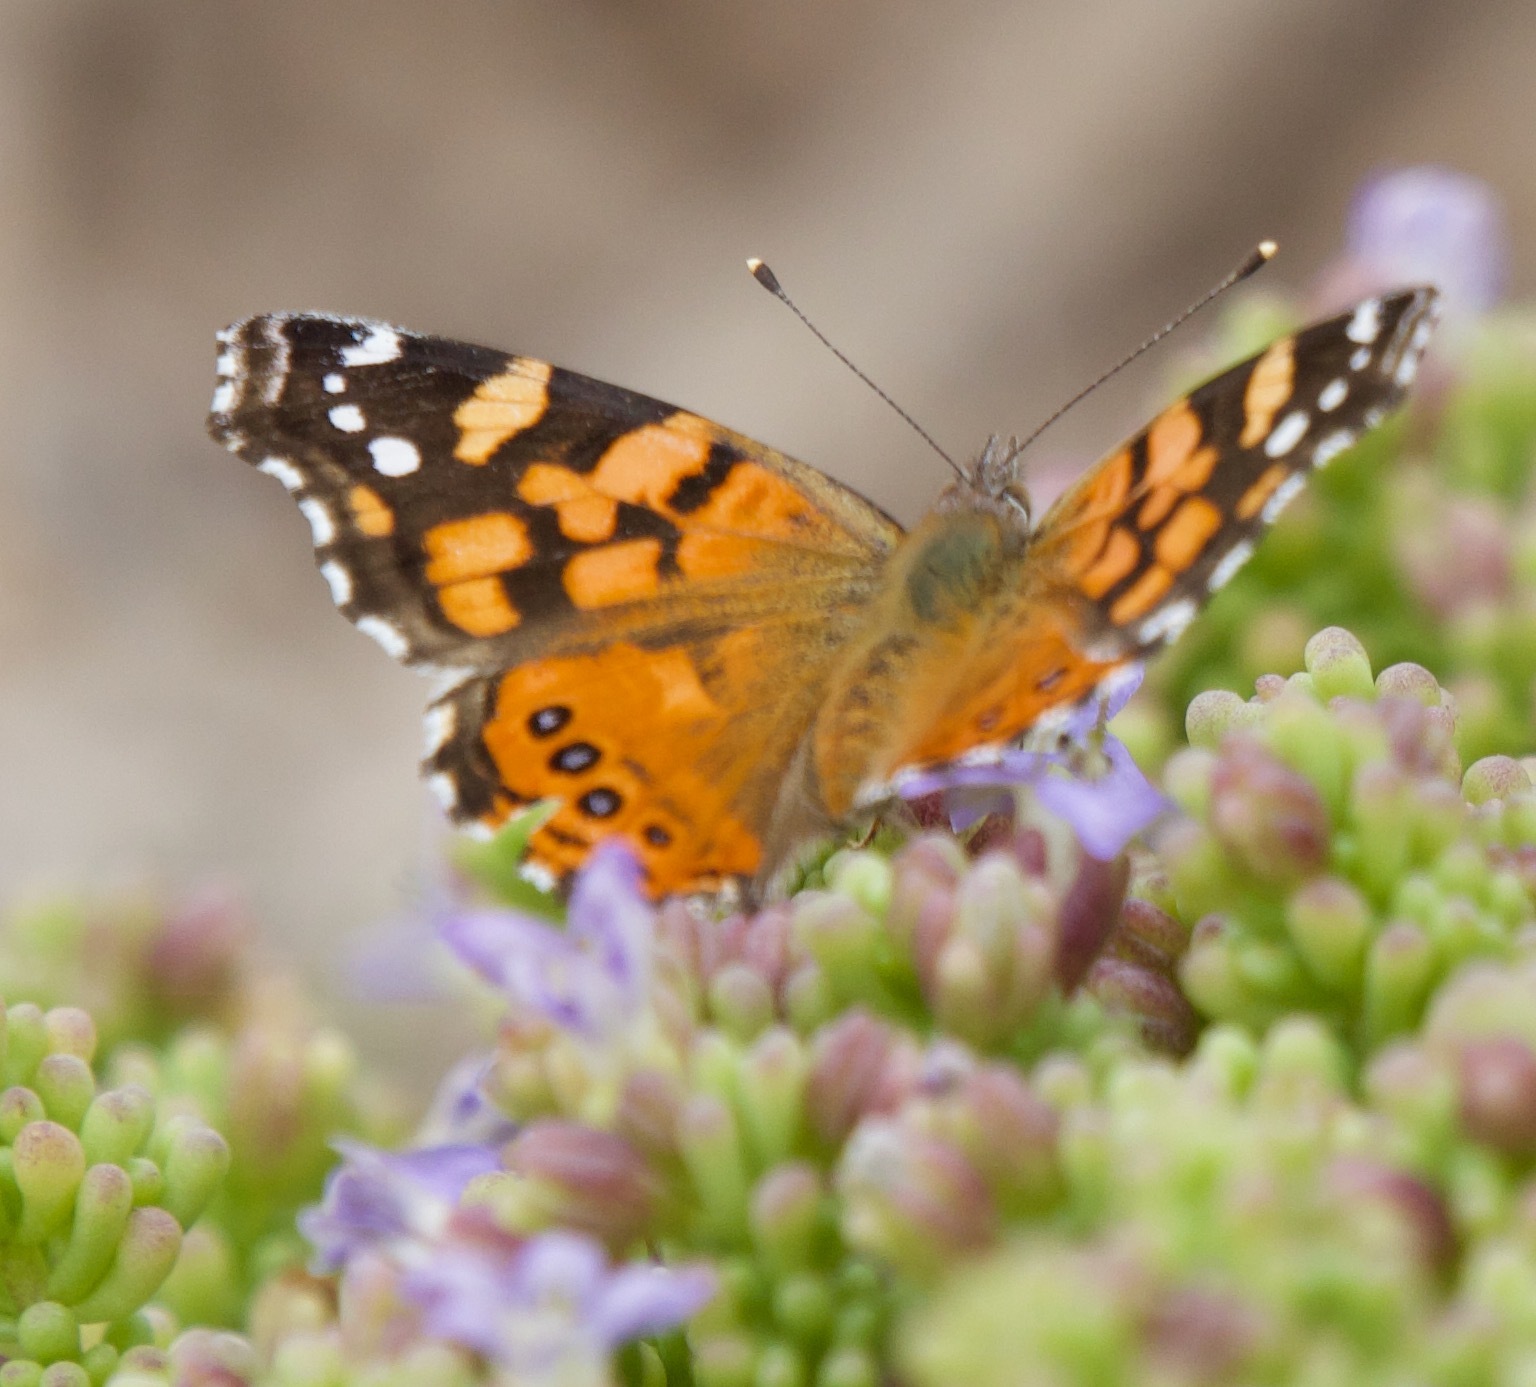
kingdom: Animalia
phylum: Arthropoda
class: Insecta
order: Lepidoptera
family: Nymphalidae
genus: Vanessa
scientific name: Vanessa carye
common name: Subtropical lady
